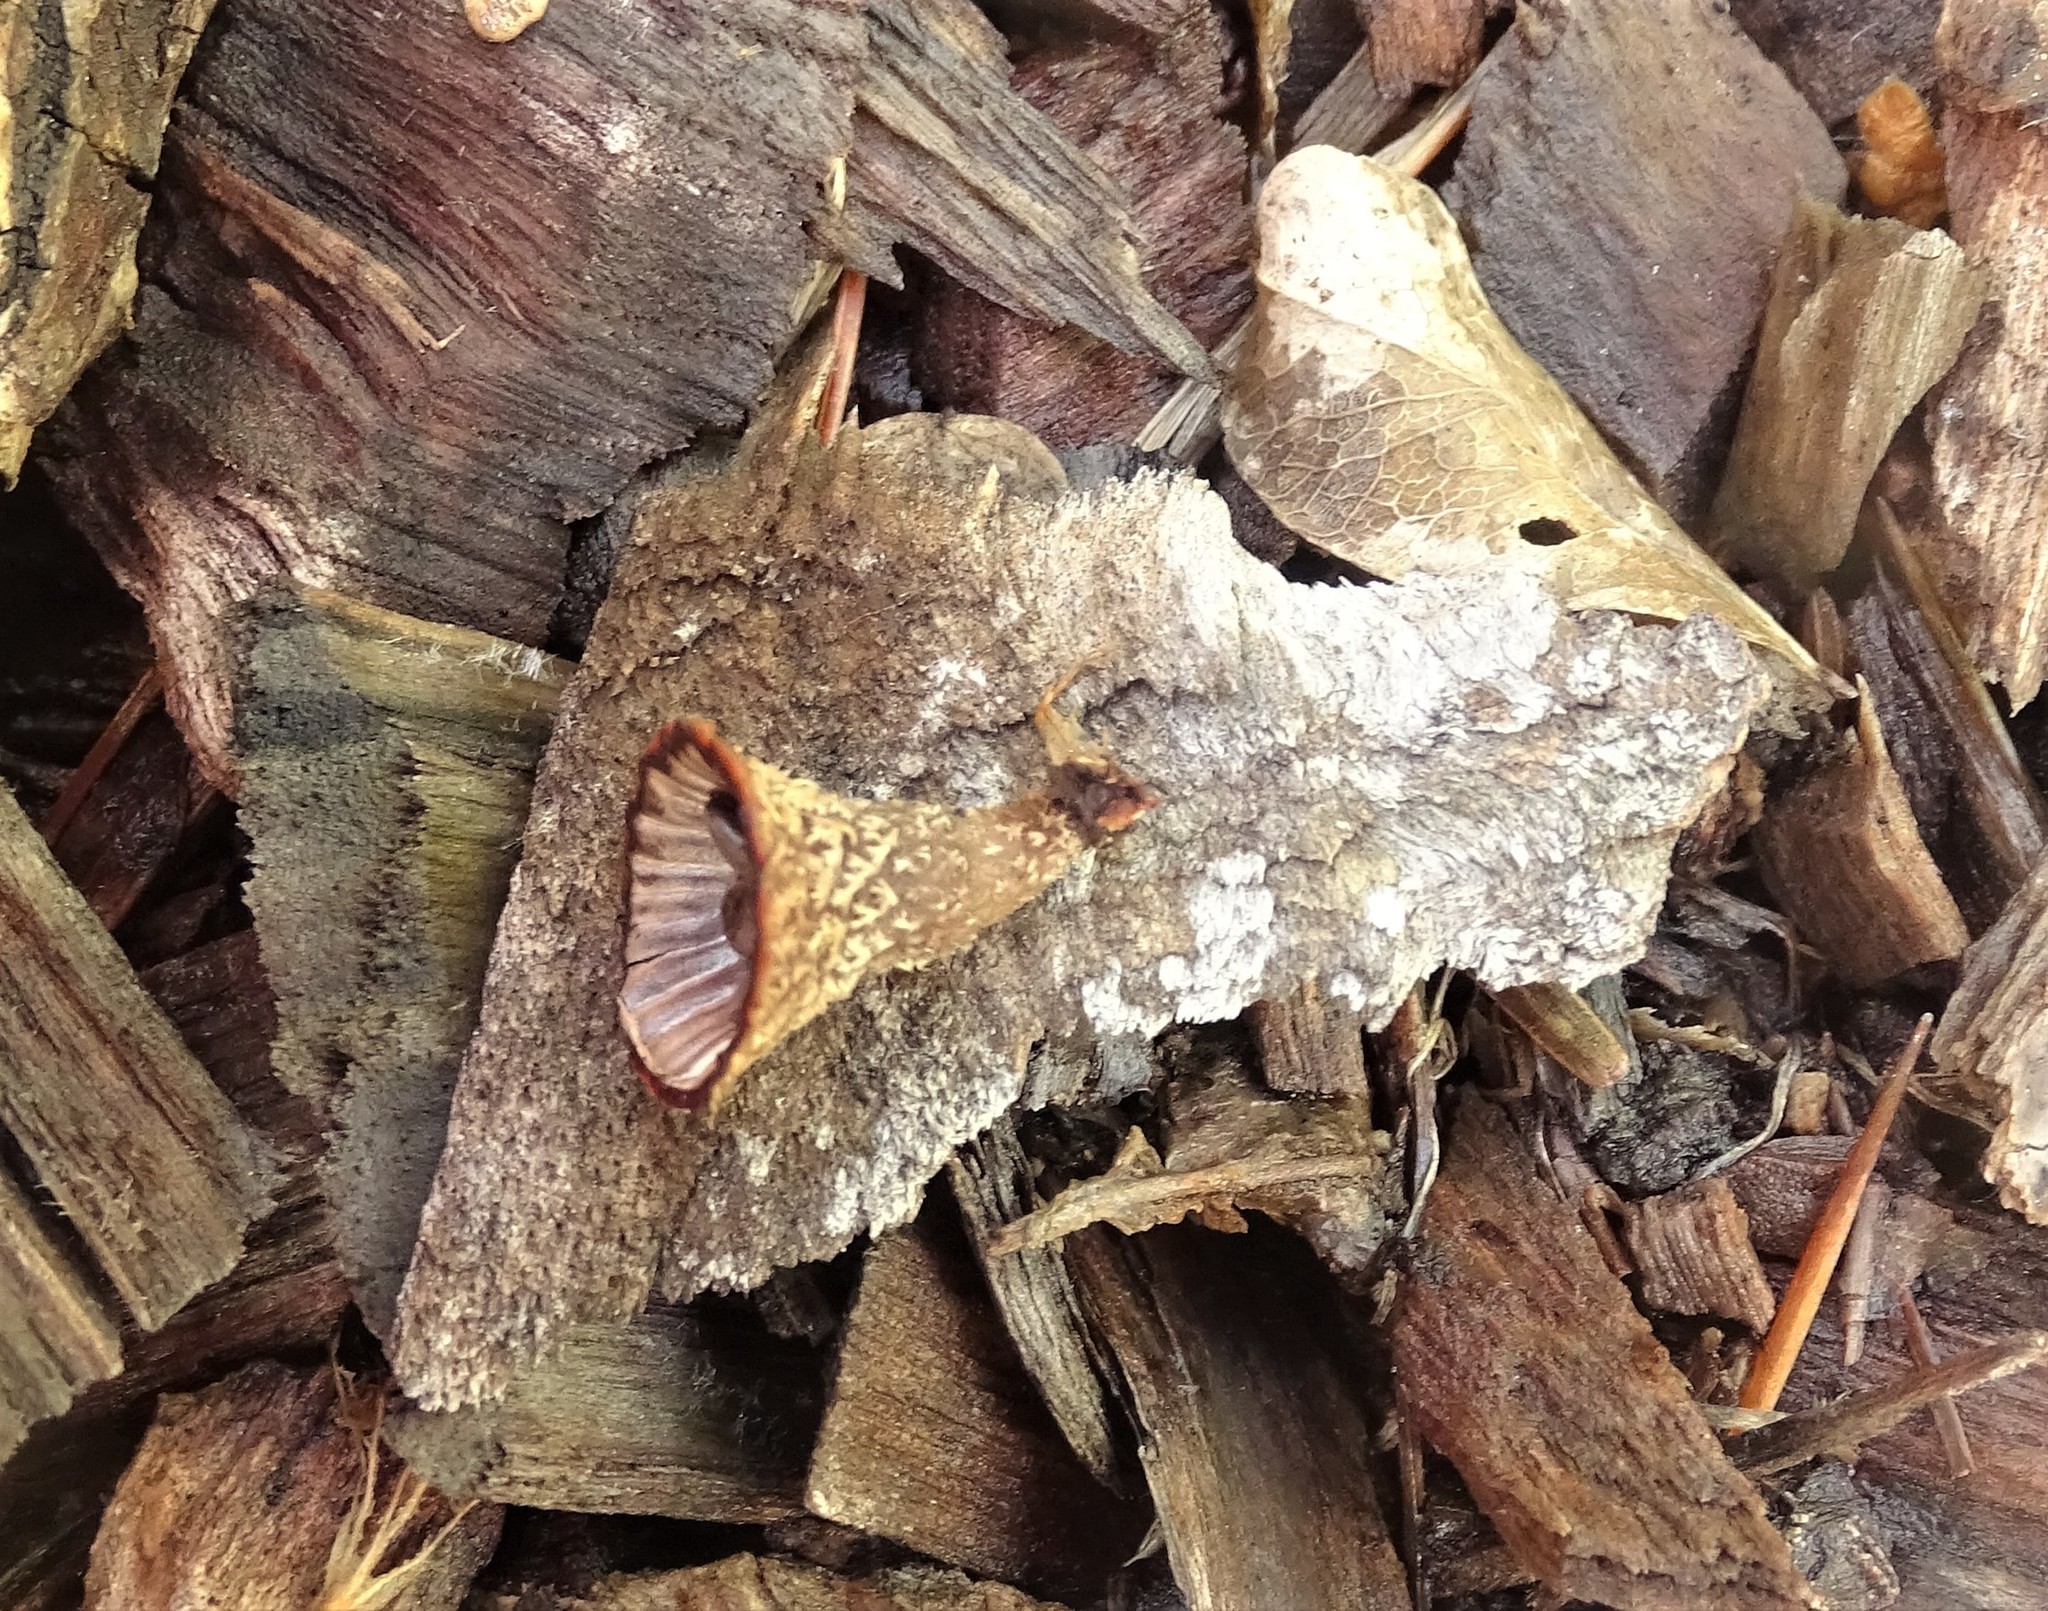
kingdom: Fungi
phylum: Basidiomycota
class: Agaricomycetes
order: Agaricales
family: Agaricaceae
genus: Cyathus
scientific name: Cyathus striatus
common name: Fluted bird's nest
